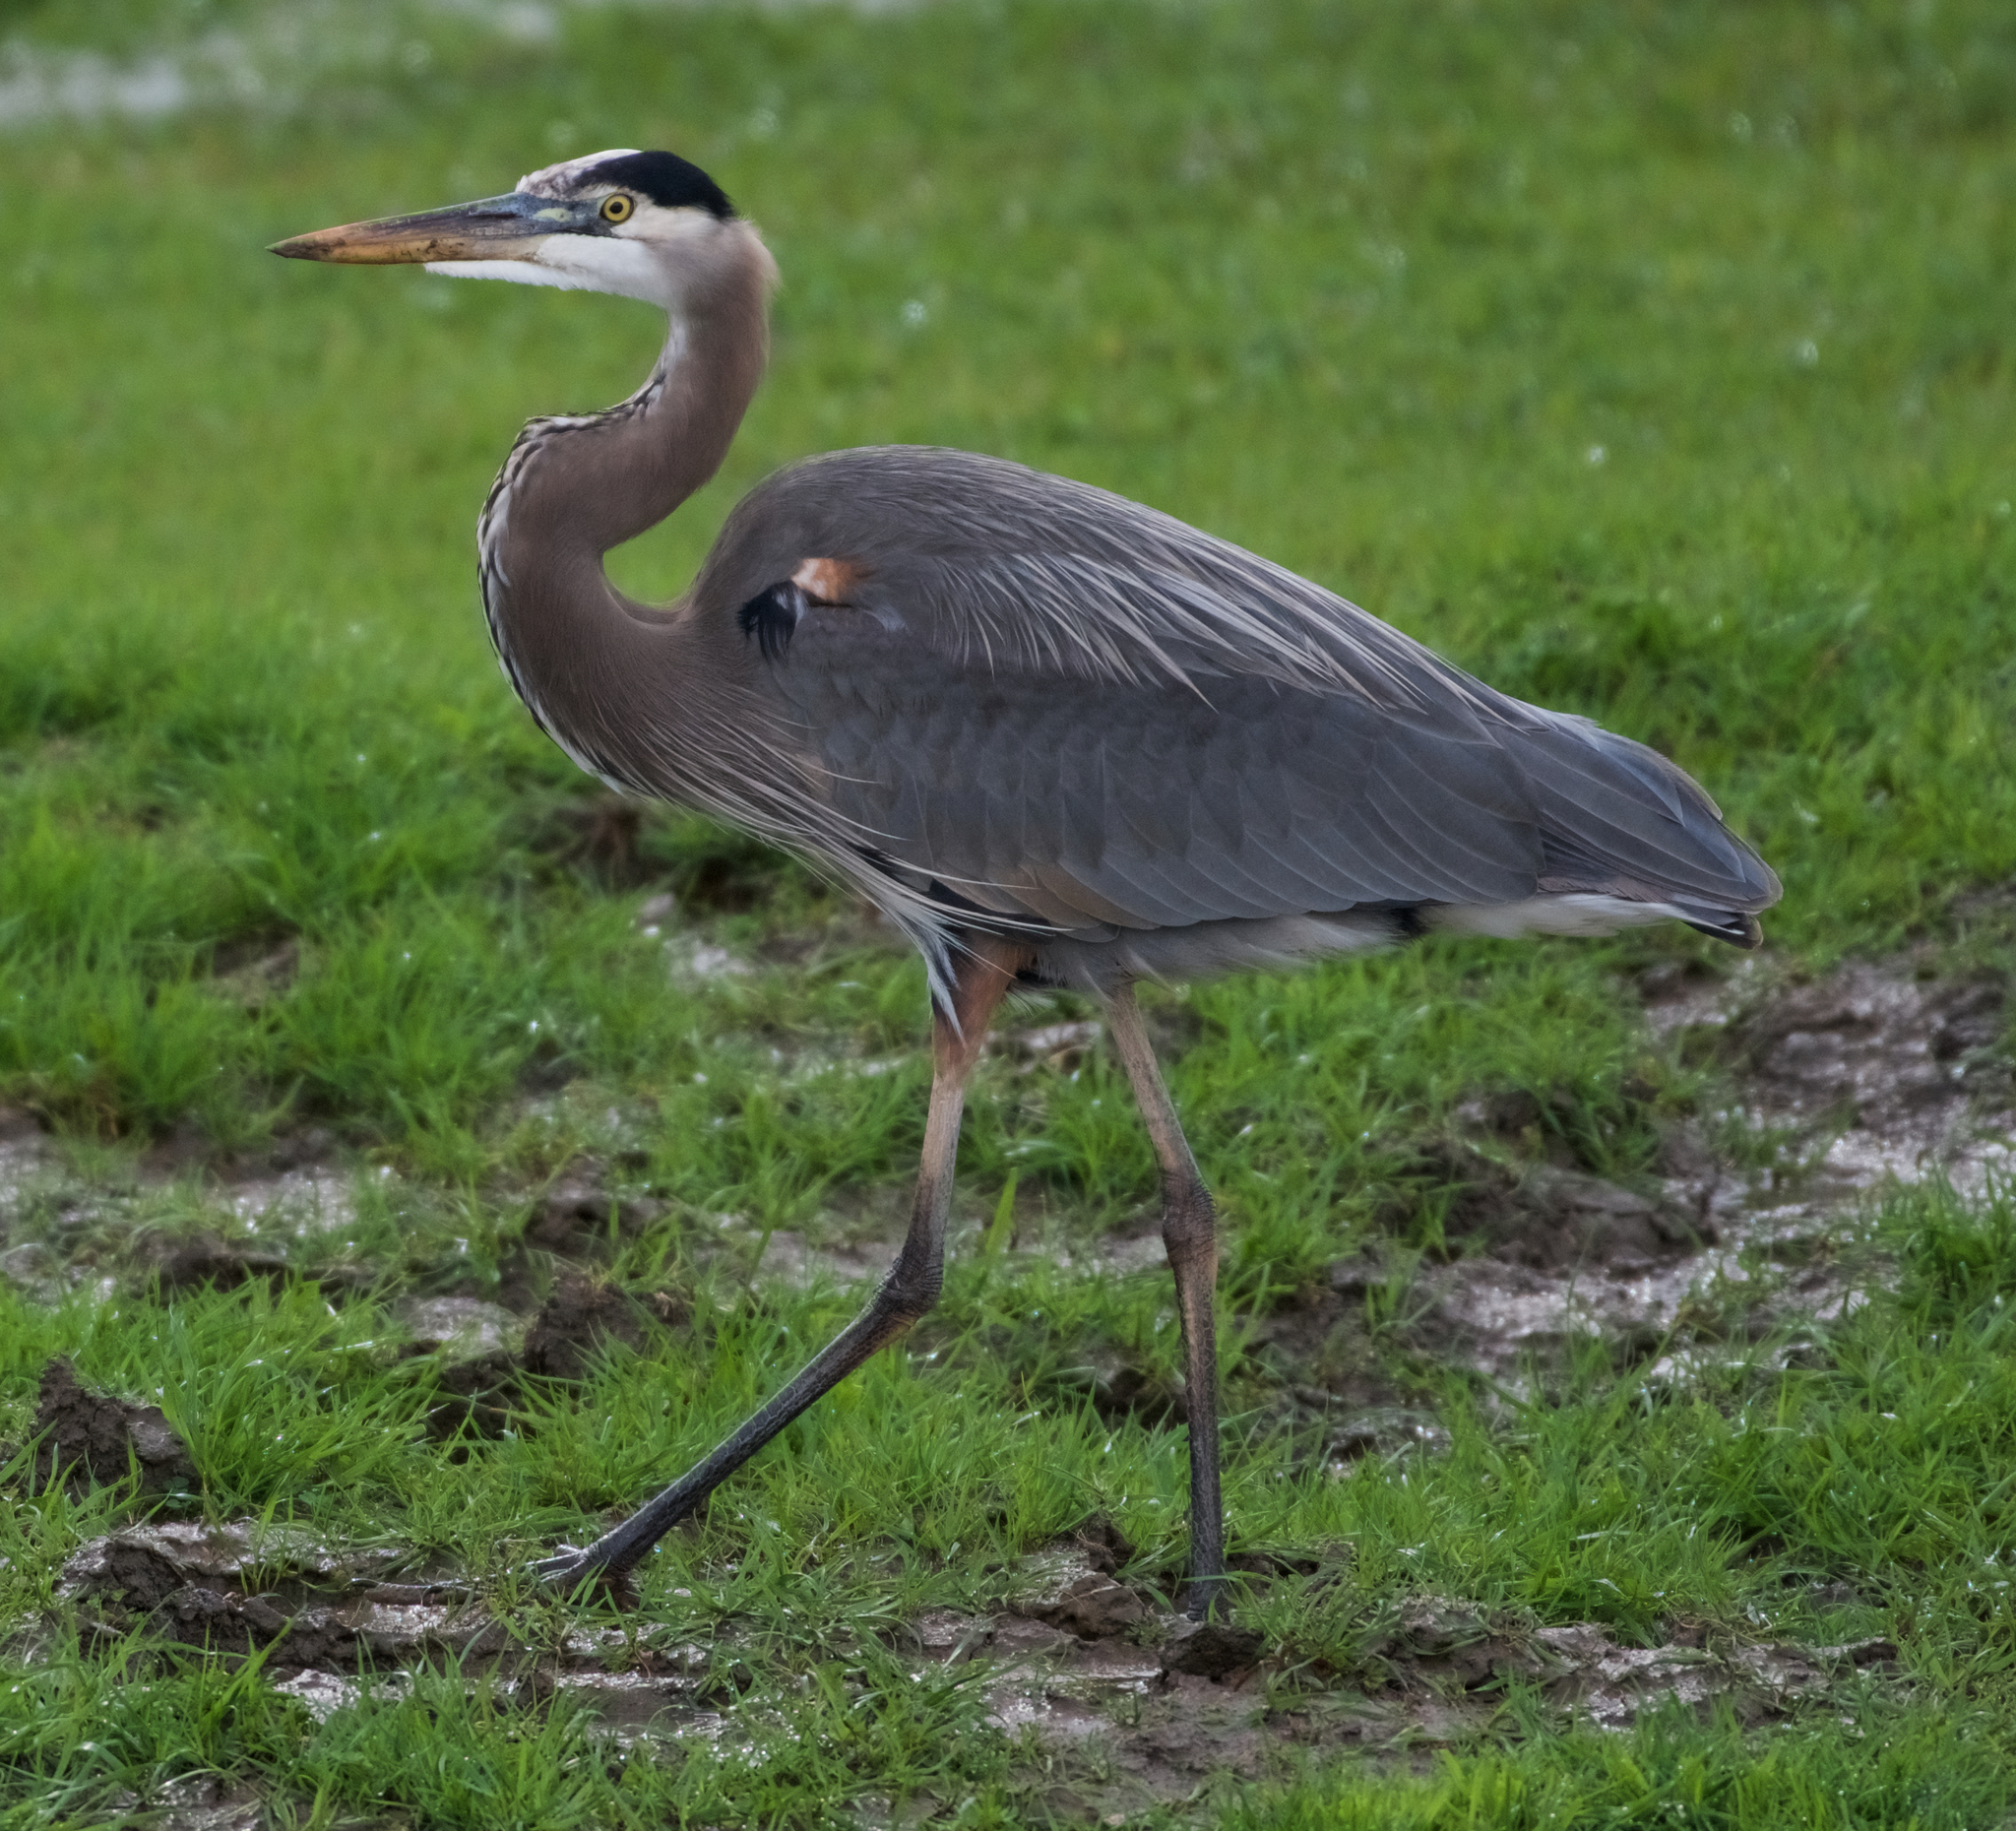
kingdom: Animalia
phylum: Chordata
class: Aves
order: Pelecaniformes
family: Ardeidae
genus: Ardea
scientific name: Ardea herodias
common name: Great blue heron
